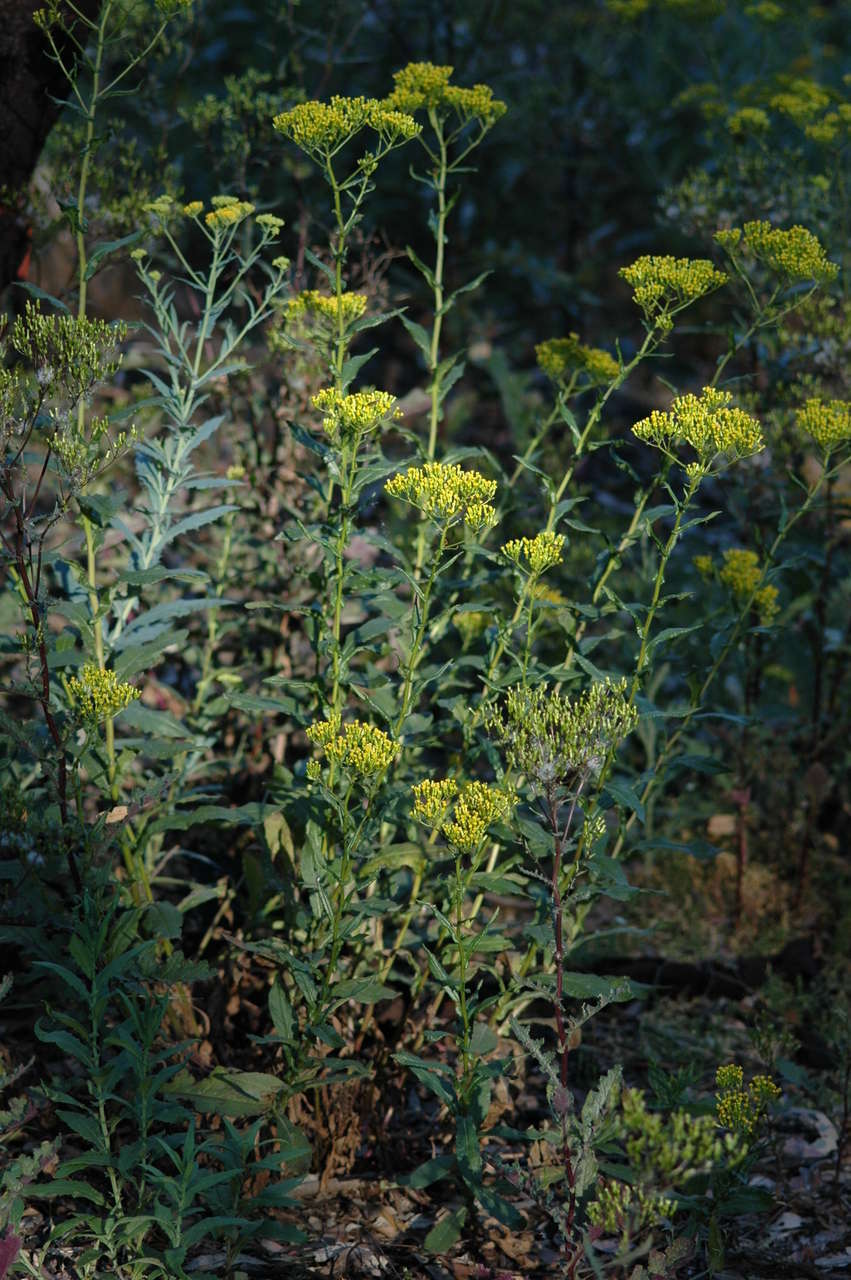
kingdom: Plantae
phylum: Tracheophyta
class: Magnoliopsida
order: Asterales
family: Asteraceae
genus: Senecio
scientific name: Senecio odoratus
